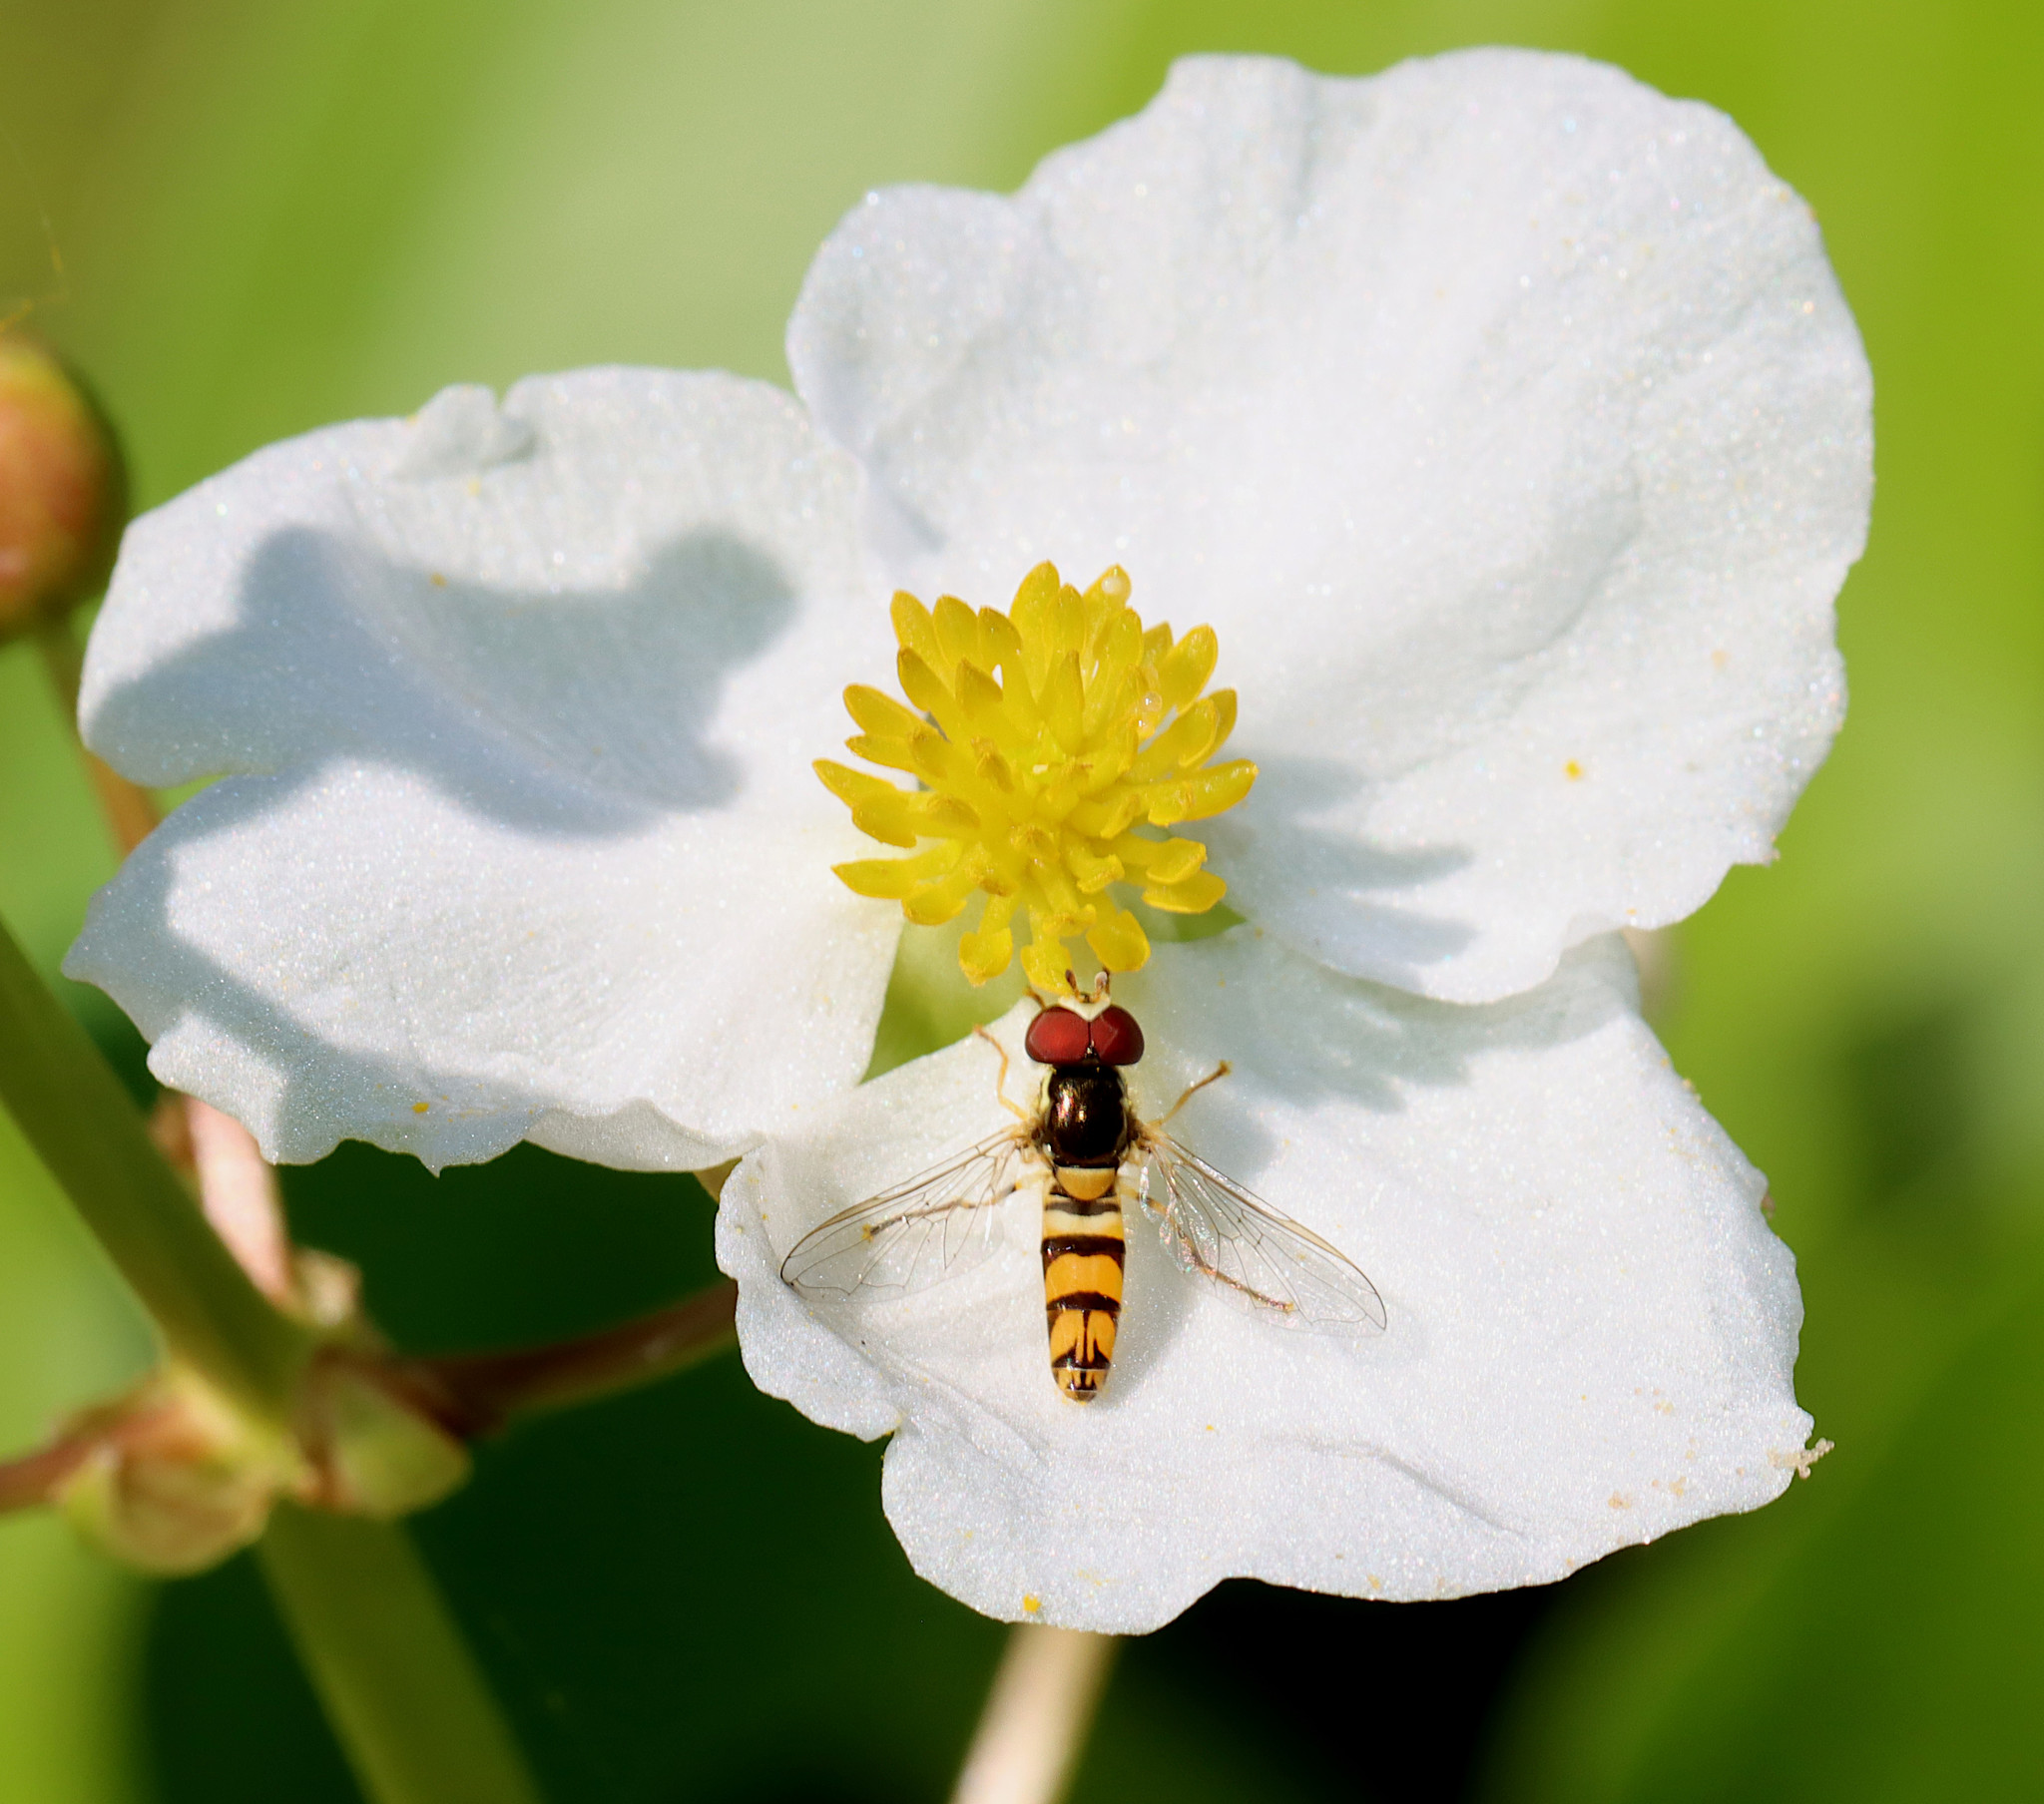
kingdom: Animalia
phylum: Arthropoda
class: Insecta
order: Diptera
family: Syrphidae
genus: Allograpta
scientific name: Allograpta
